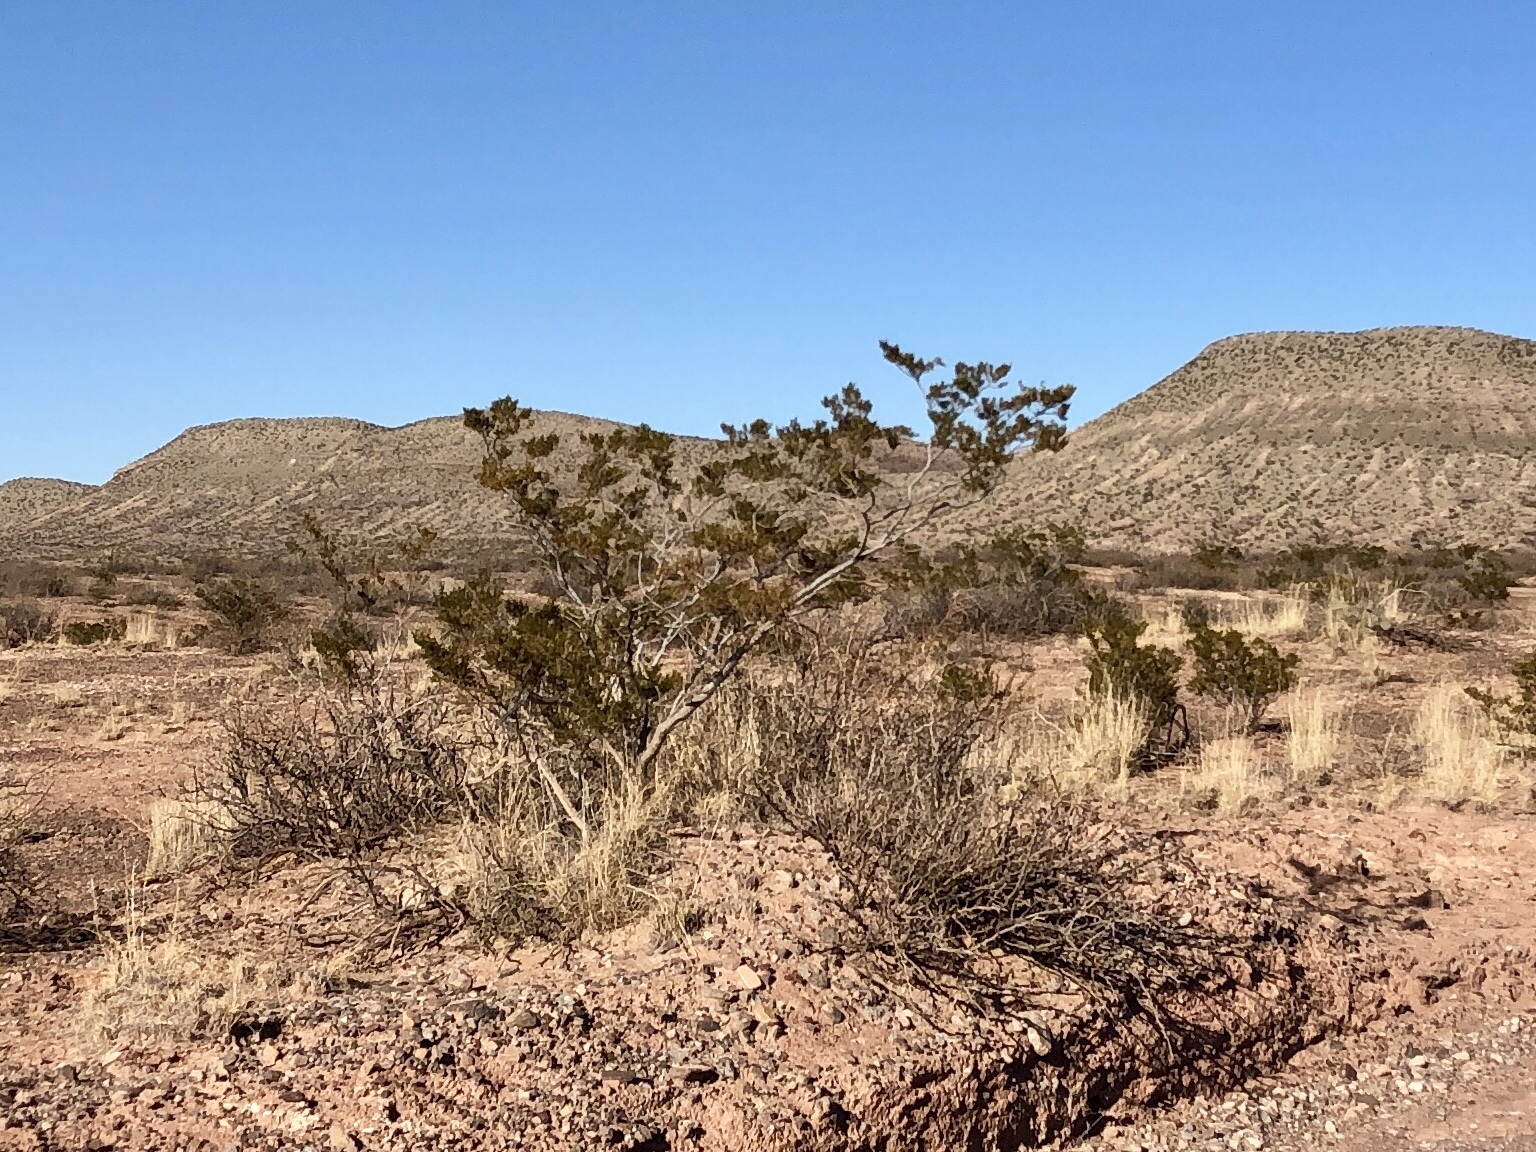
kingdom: Plantae
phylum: Tracheophyta
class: Magnoliopsida
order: Zygophyllales
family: Zygophyllaceae
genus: Larrea
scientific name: Larrea tridentata
